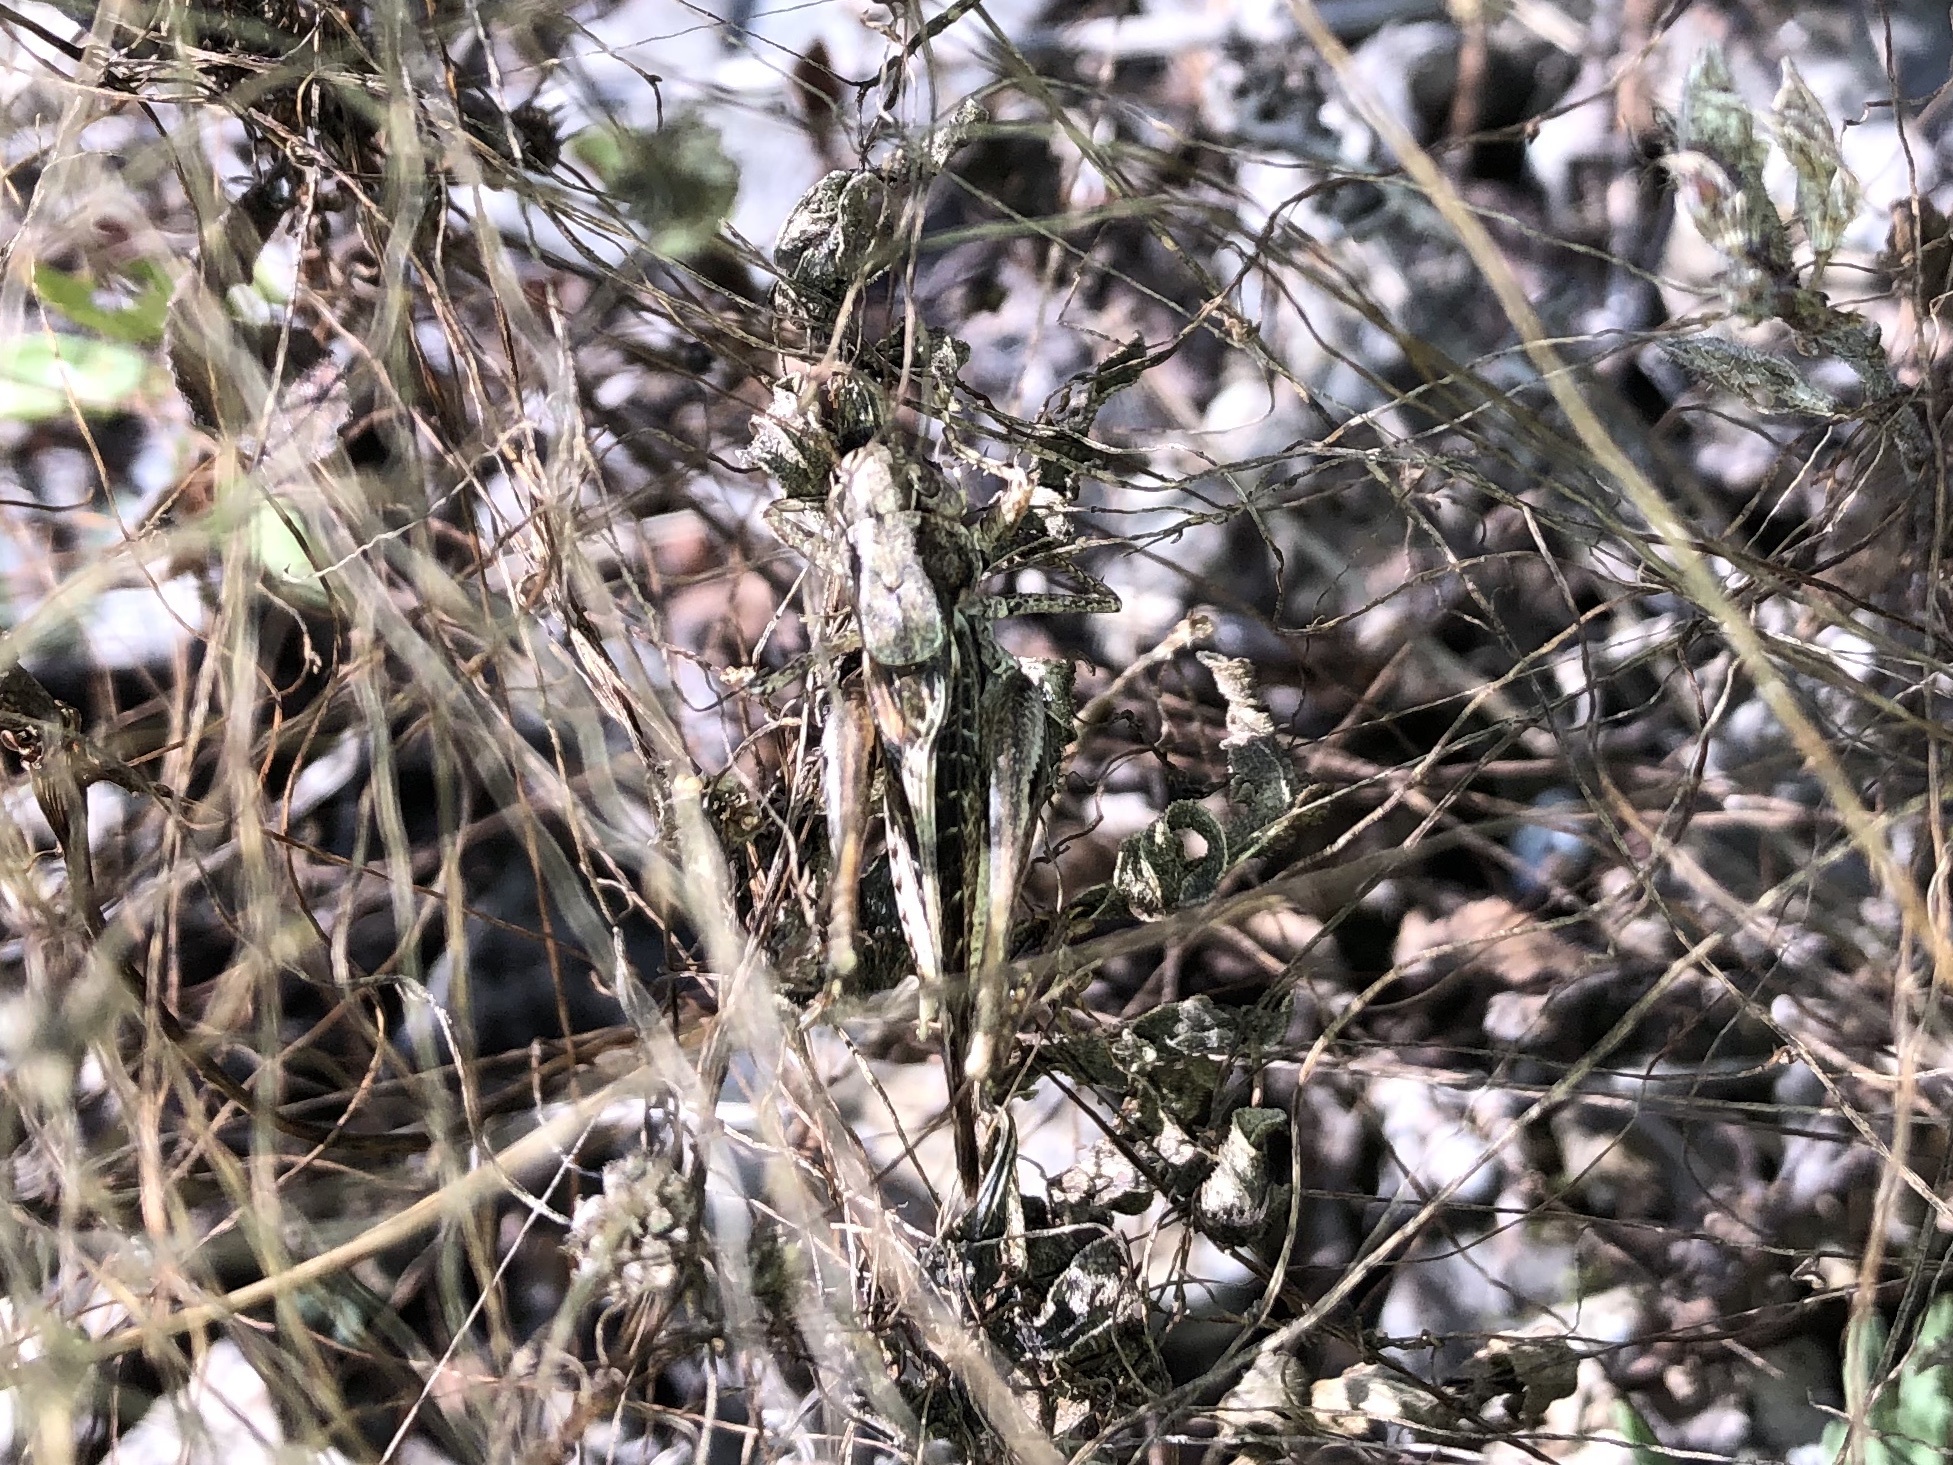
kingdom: Animalia
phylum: Arthropoda
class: Insecta
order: Orthoptera
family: Tettigoniidae
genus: Platycleis
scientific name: Platycleis albopunctata
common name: Grey bush-cricket
